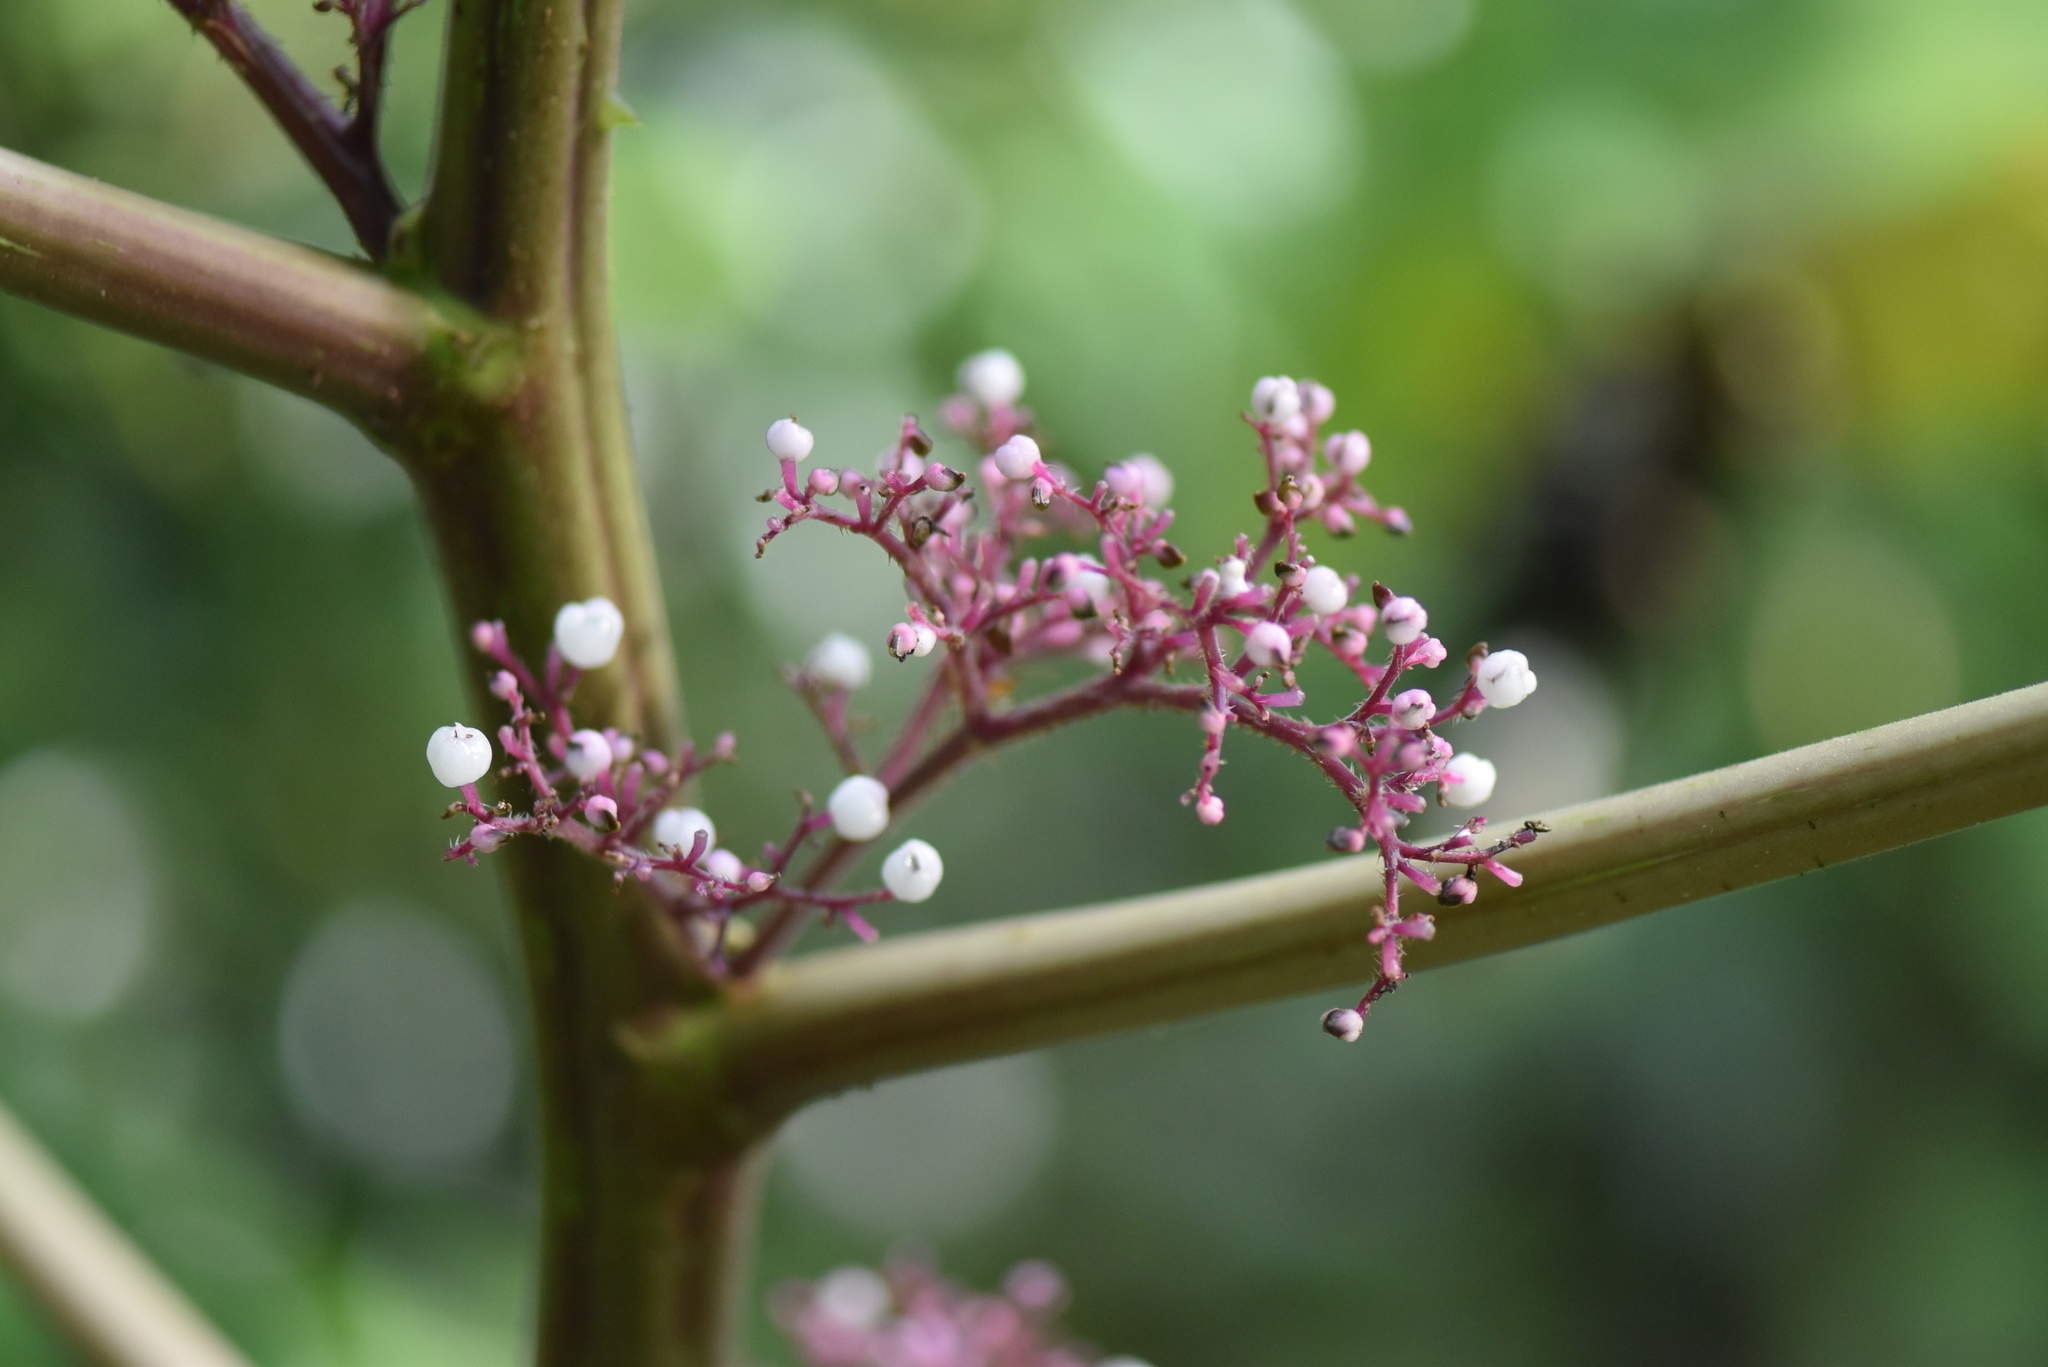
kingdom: Plantae
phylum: Tracheophyta
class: Magnoliopsida
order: Rosales
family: Urticaceae
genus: Urera
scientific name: Urera baccifera
